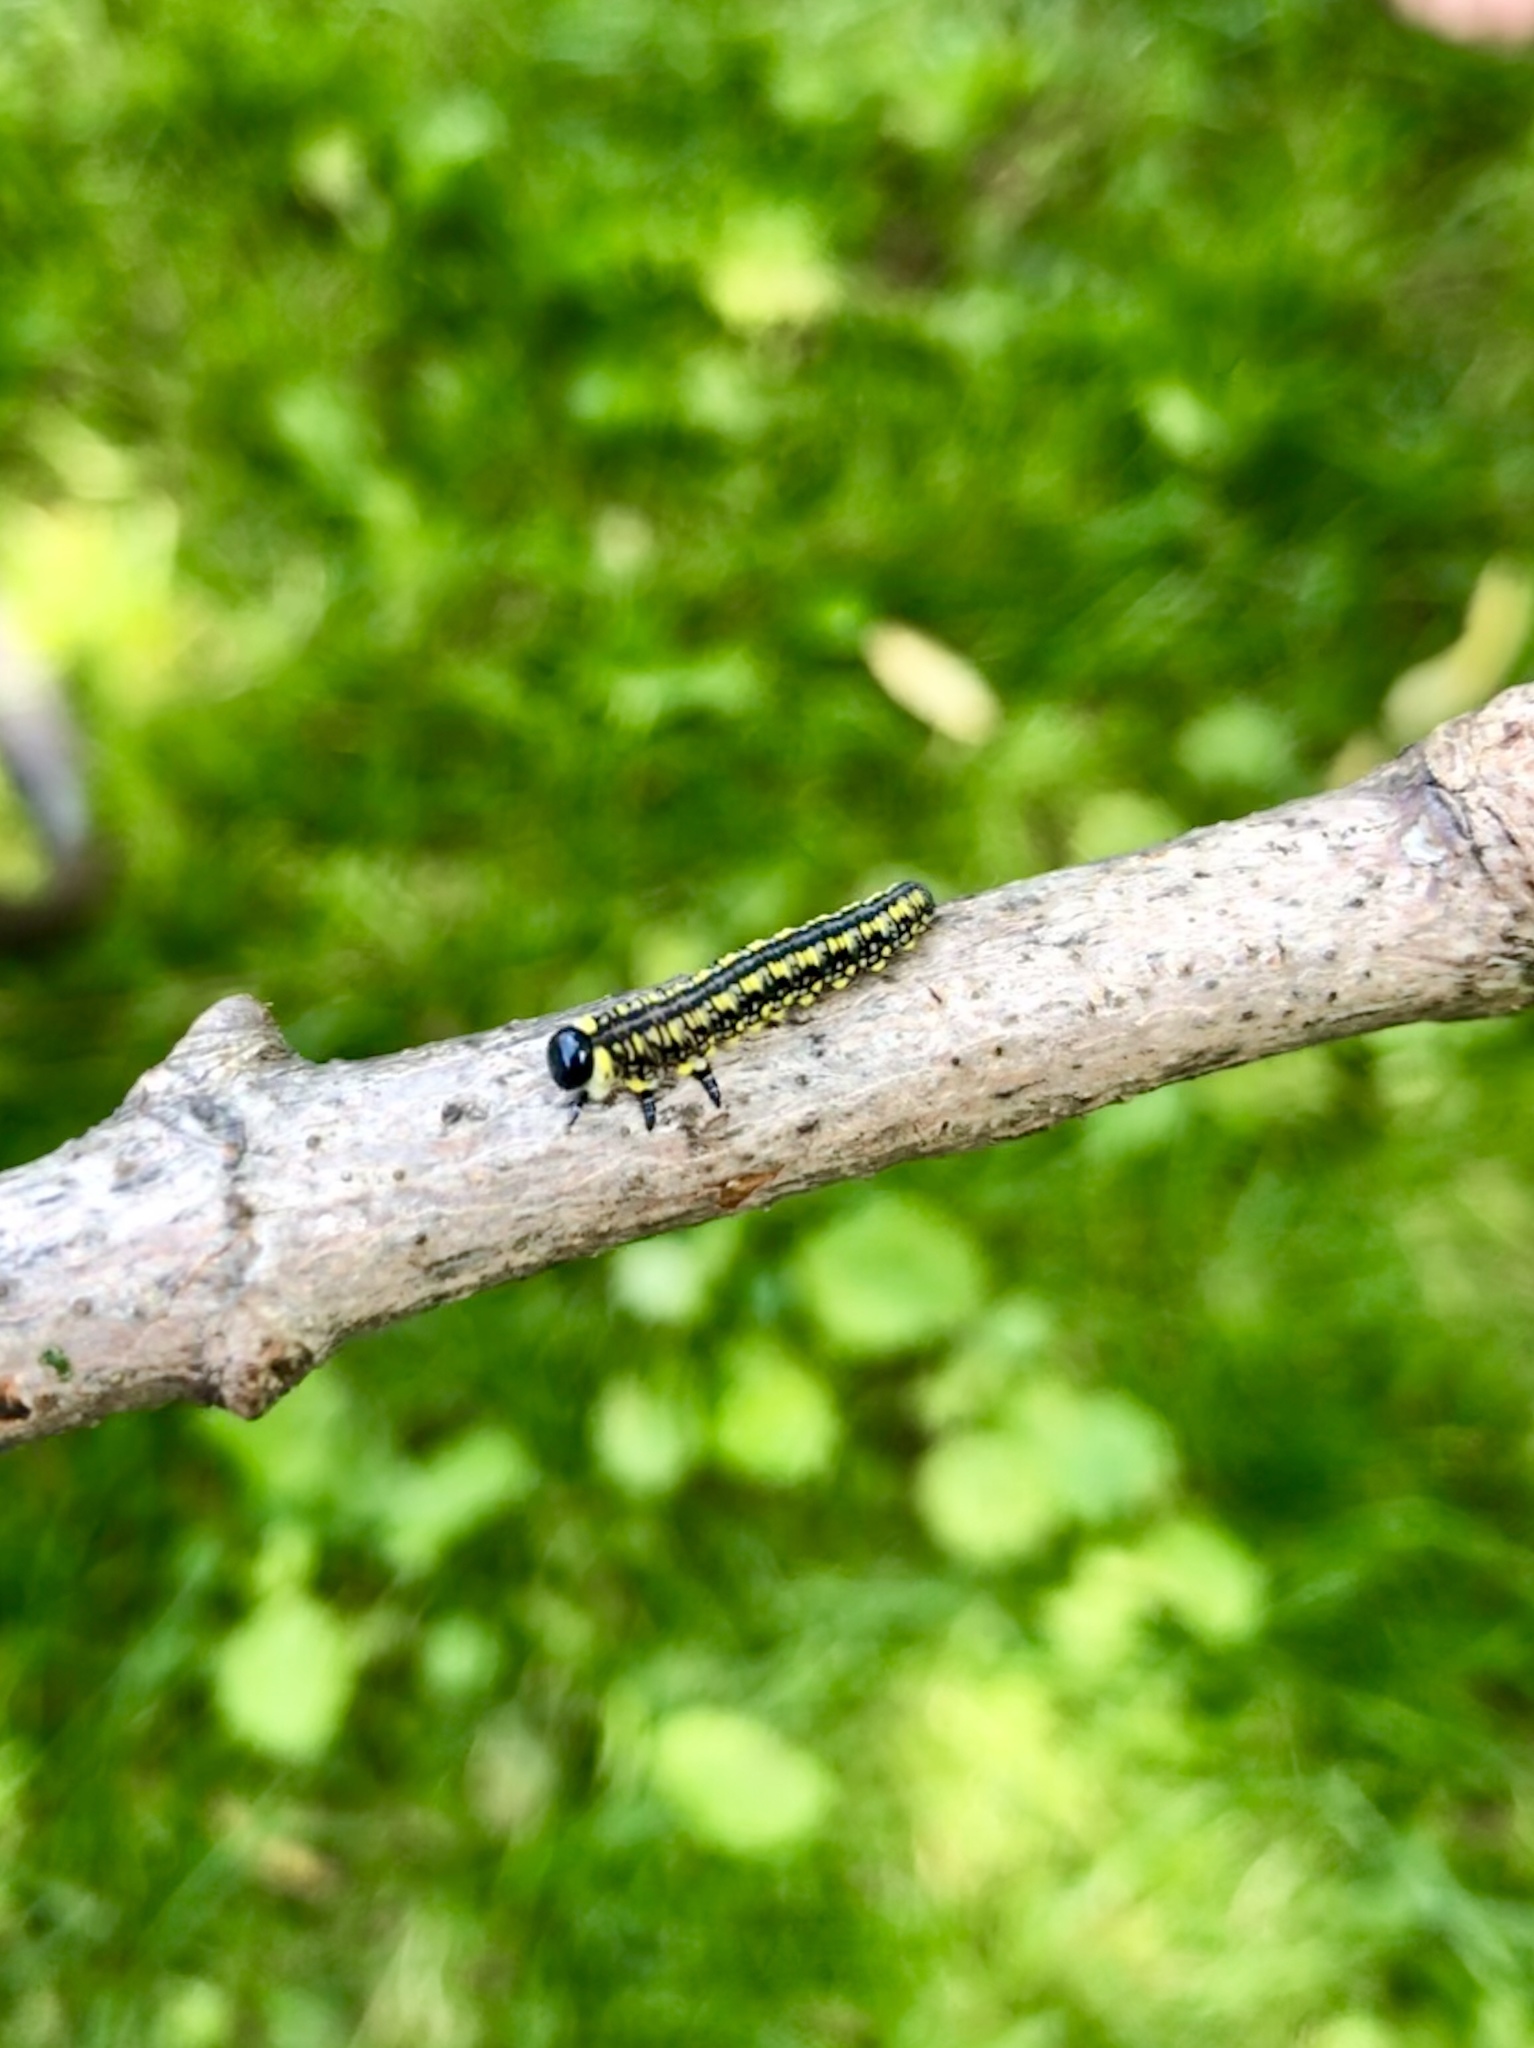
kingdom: Animalia
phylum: Arthropoda
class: Insecta
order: Hymenoptera
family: Diprionidae
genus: Diprion
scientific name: Diprion similis
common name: Pine sawfly
